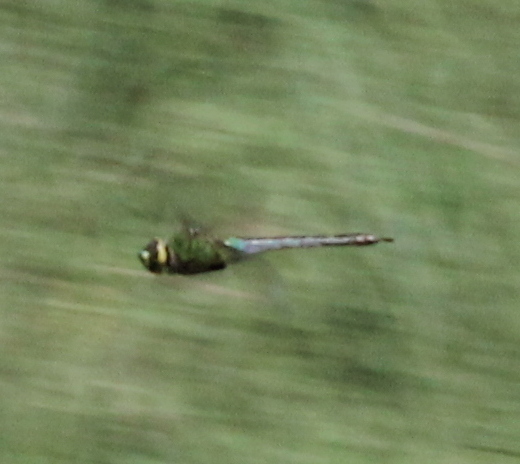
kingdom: Animalia
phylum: Arthropoda
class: Insecta
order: Odonata
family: Aeshnidae
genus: Anax
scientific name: Anax junius
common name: Common green darner
